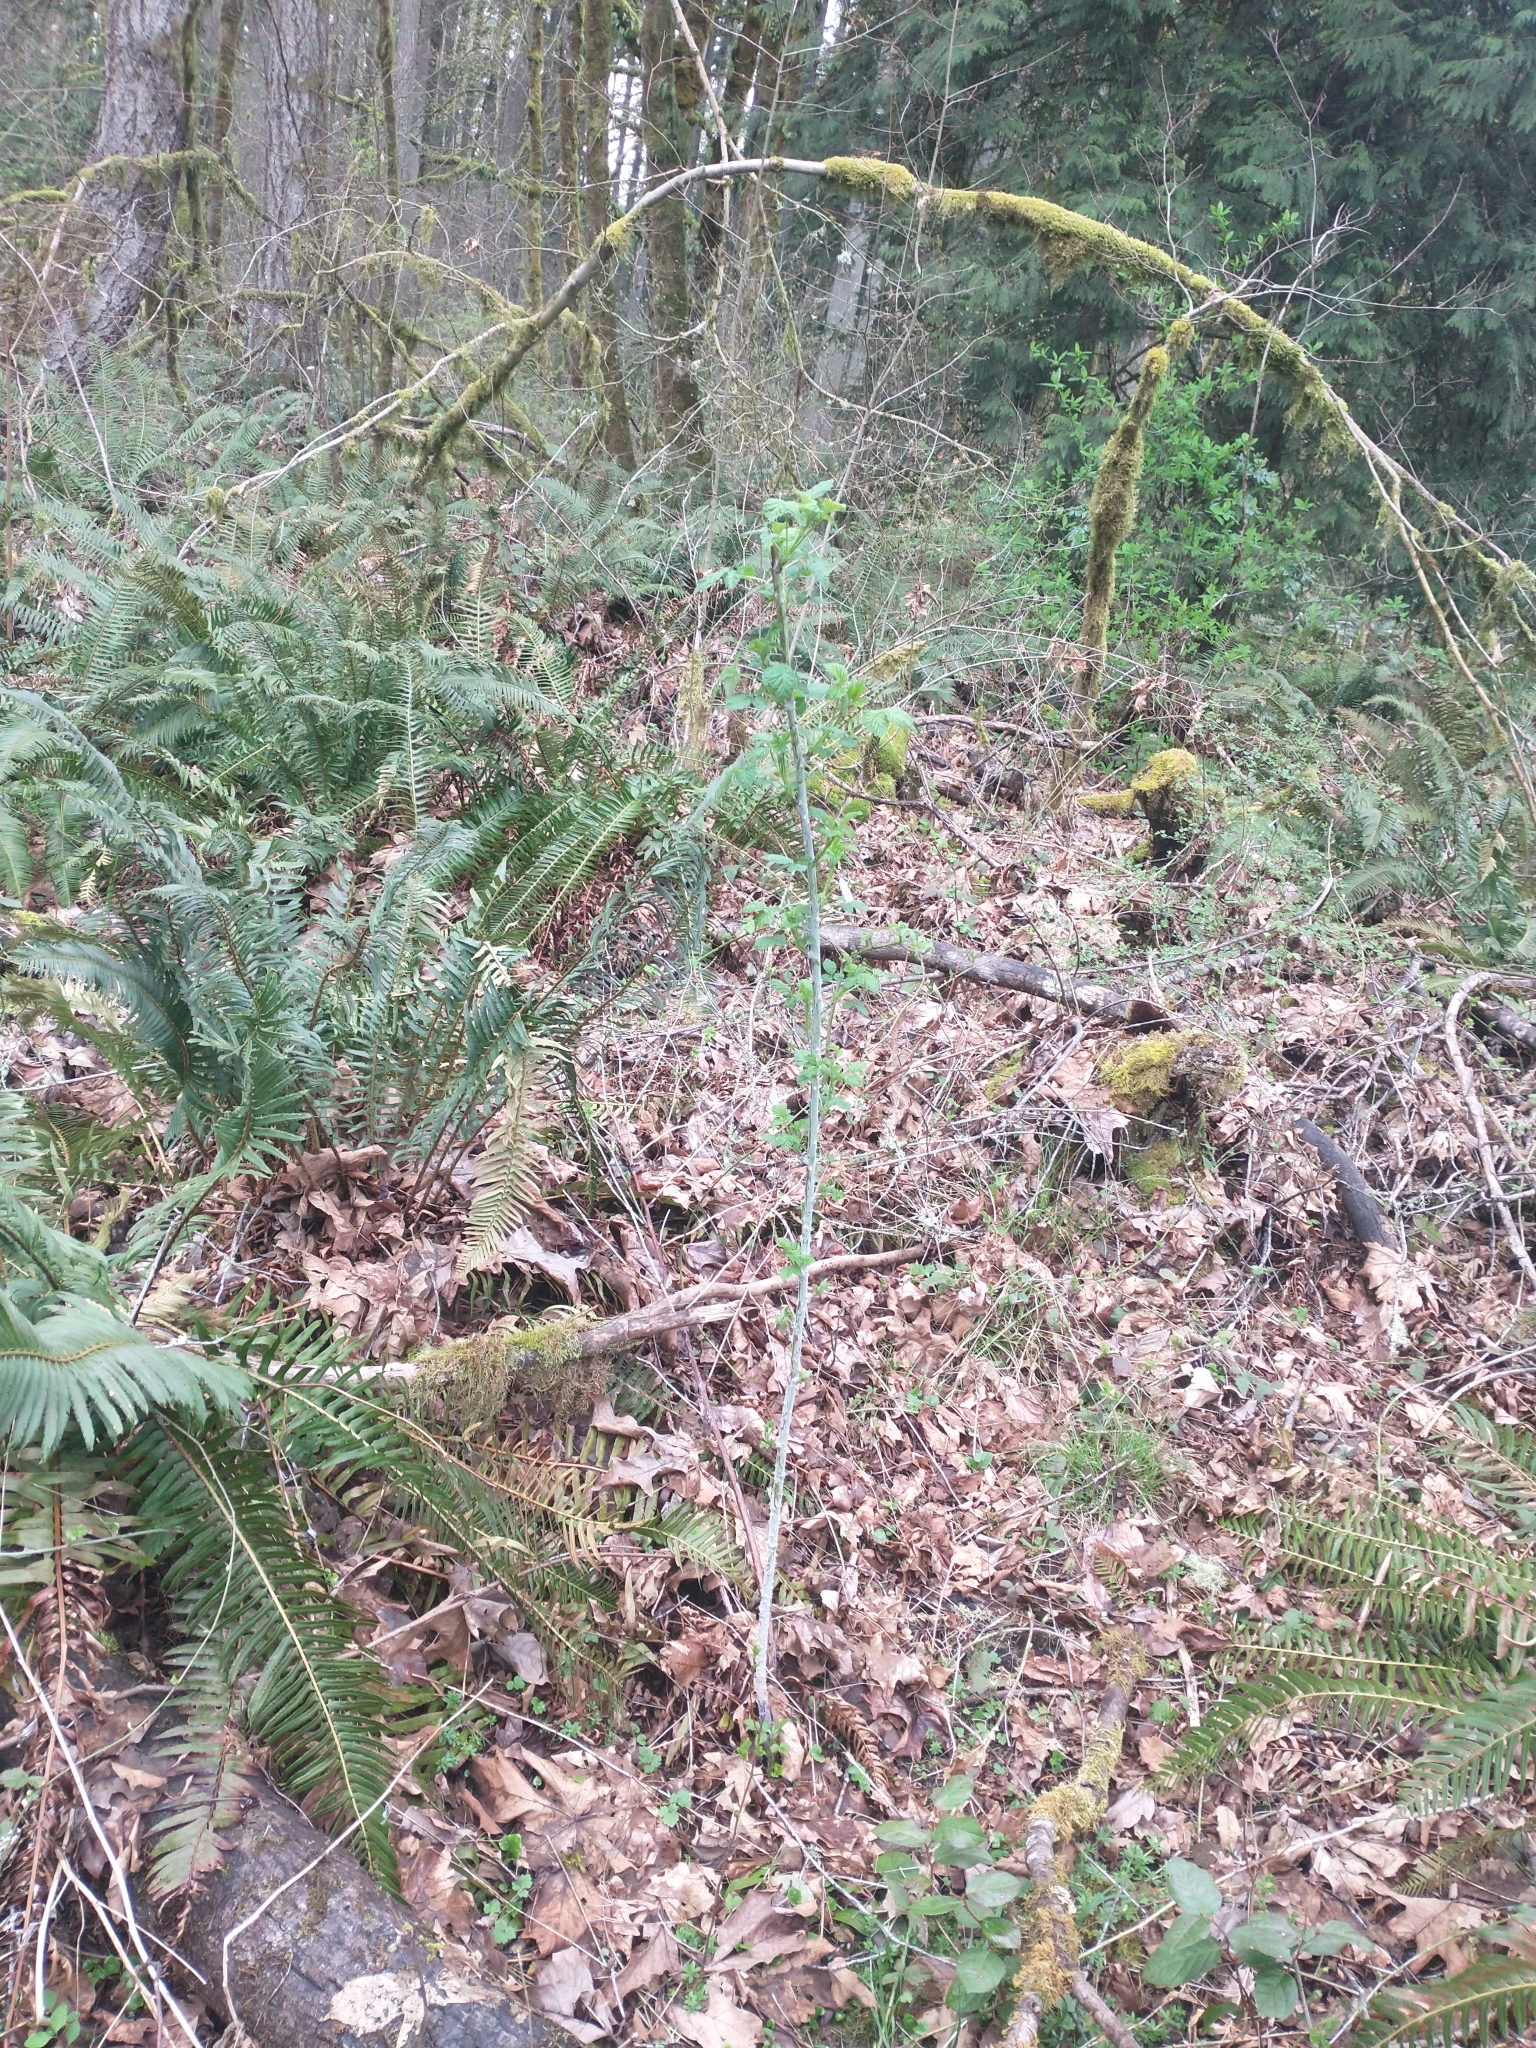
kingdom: Plantae
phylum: Tracheophyta
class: Magnoliopsida
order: Rosales
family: Rosaceae
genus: Rubus
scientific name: Rubus leucodermis
